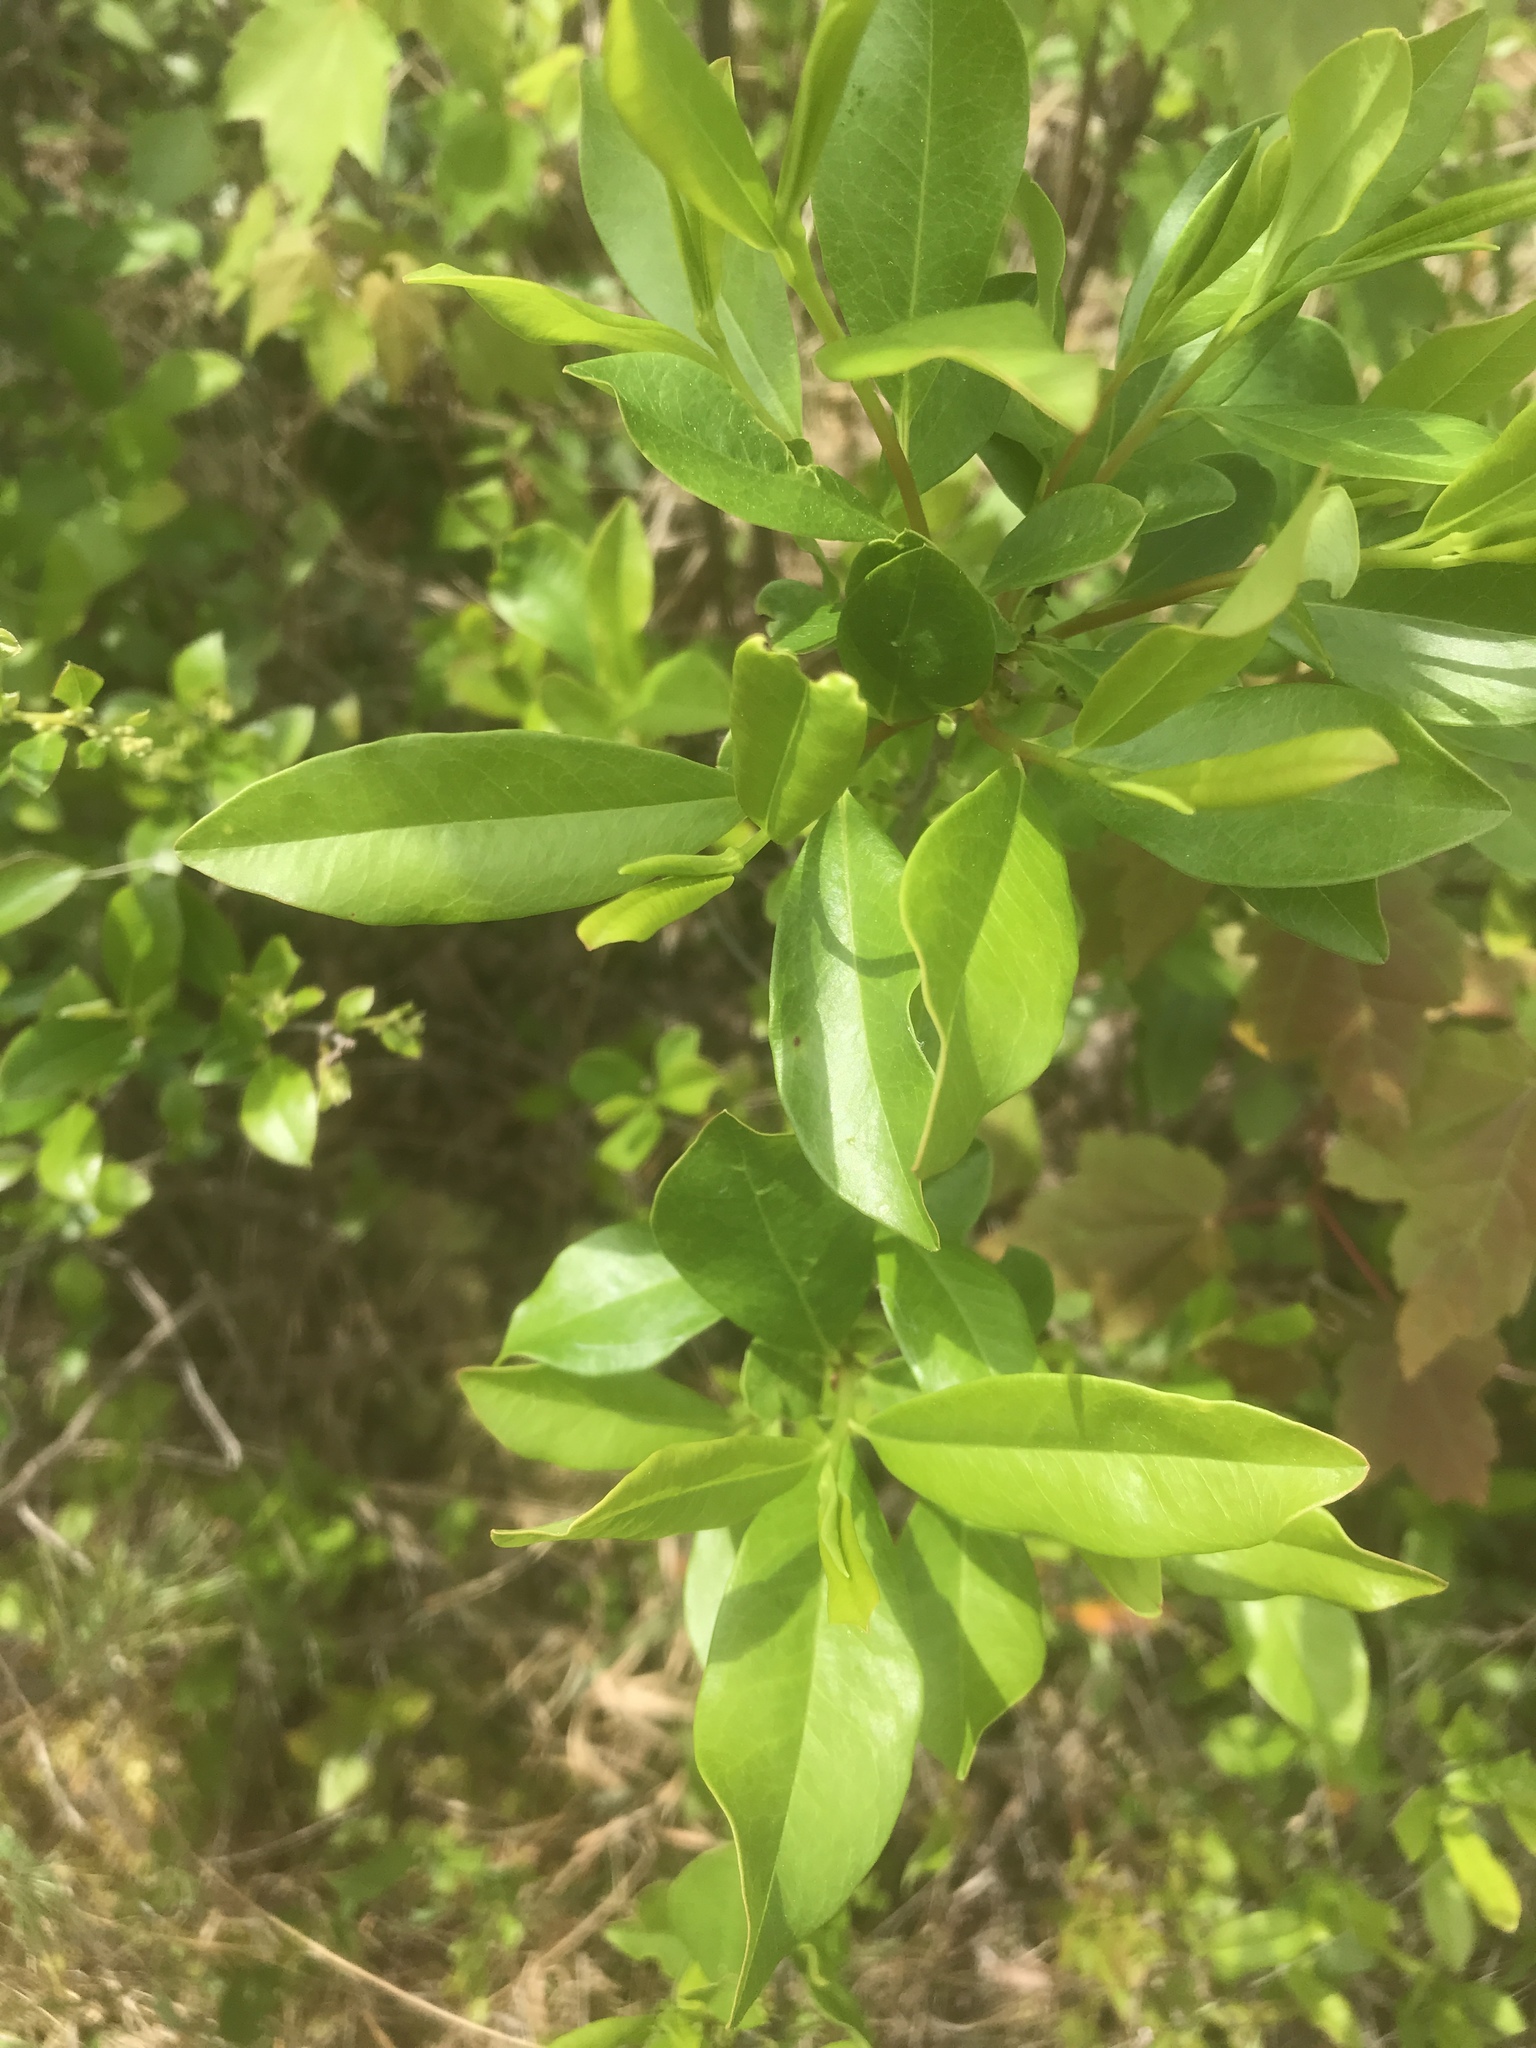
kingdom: Plantae
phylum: Tracheophyta
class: Magnoliopsida
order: Ericales
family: Cyrillaceae
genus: Cyrilla
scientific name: Cyrilla racemiflora
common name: Black titi
